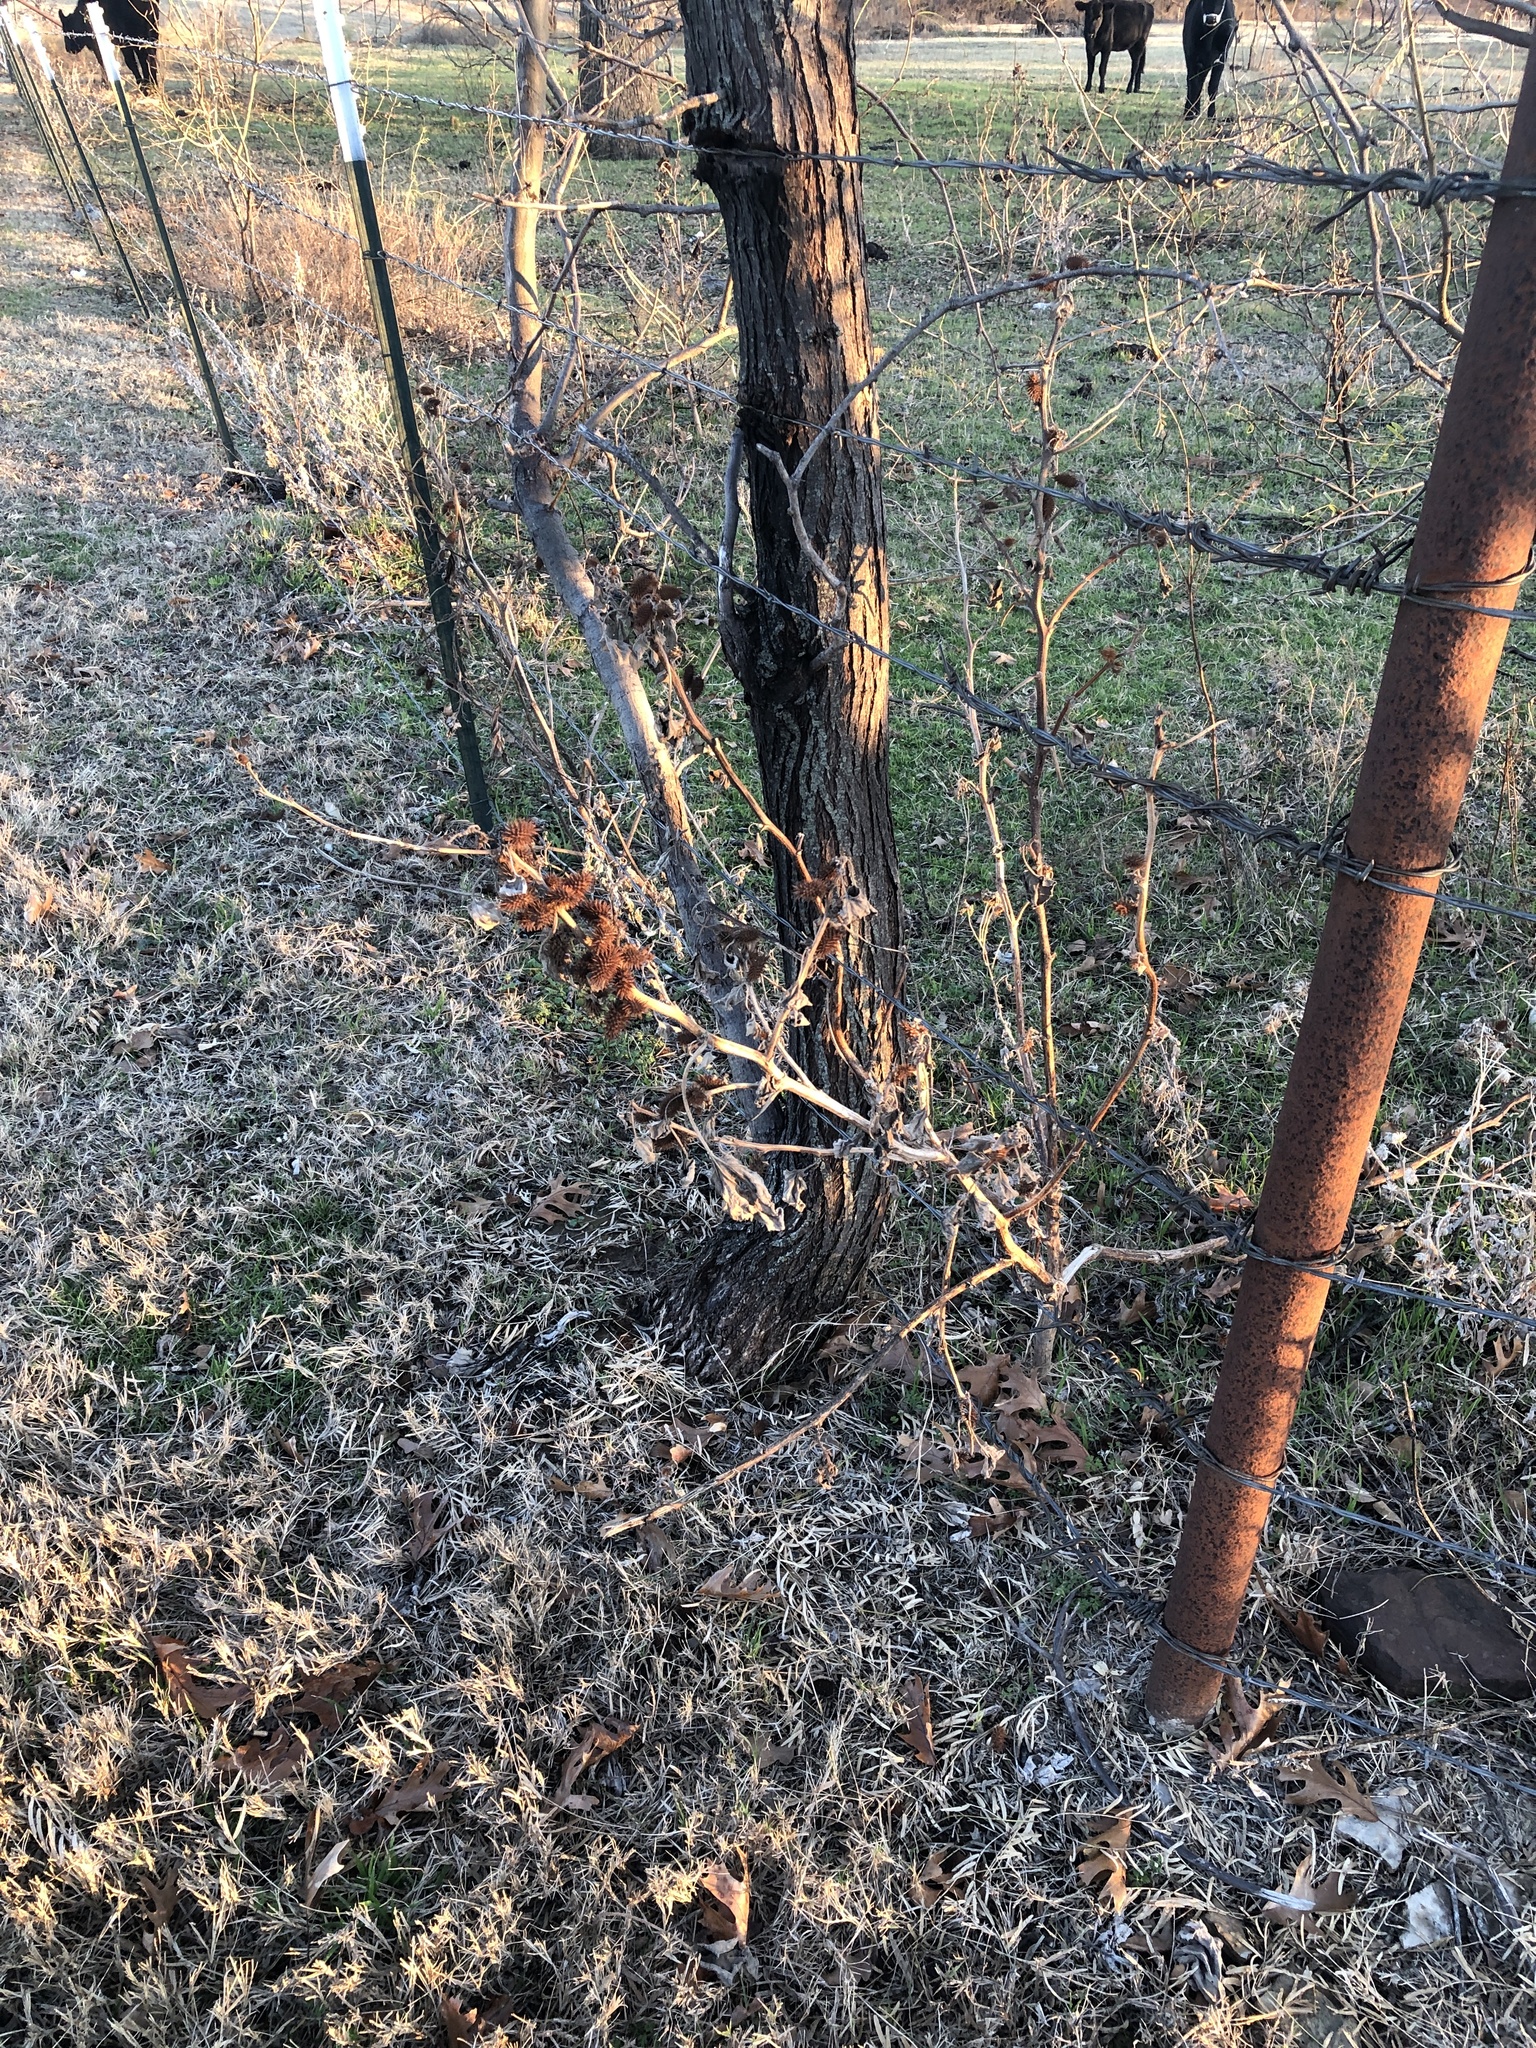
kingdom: Plantae
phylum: Tracheophyta
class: Magnoliopsida
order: Asterales
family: Asteraceae
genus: Xanthium
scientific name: Xanthium strumarium
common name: Rough cocklebur
